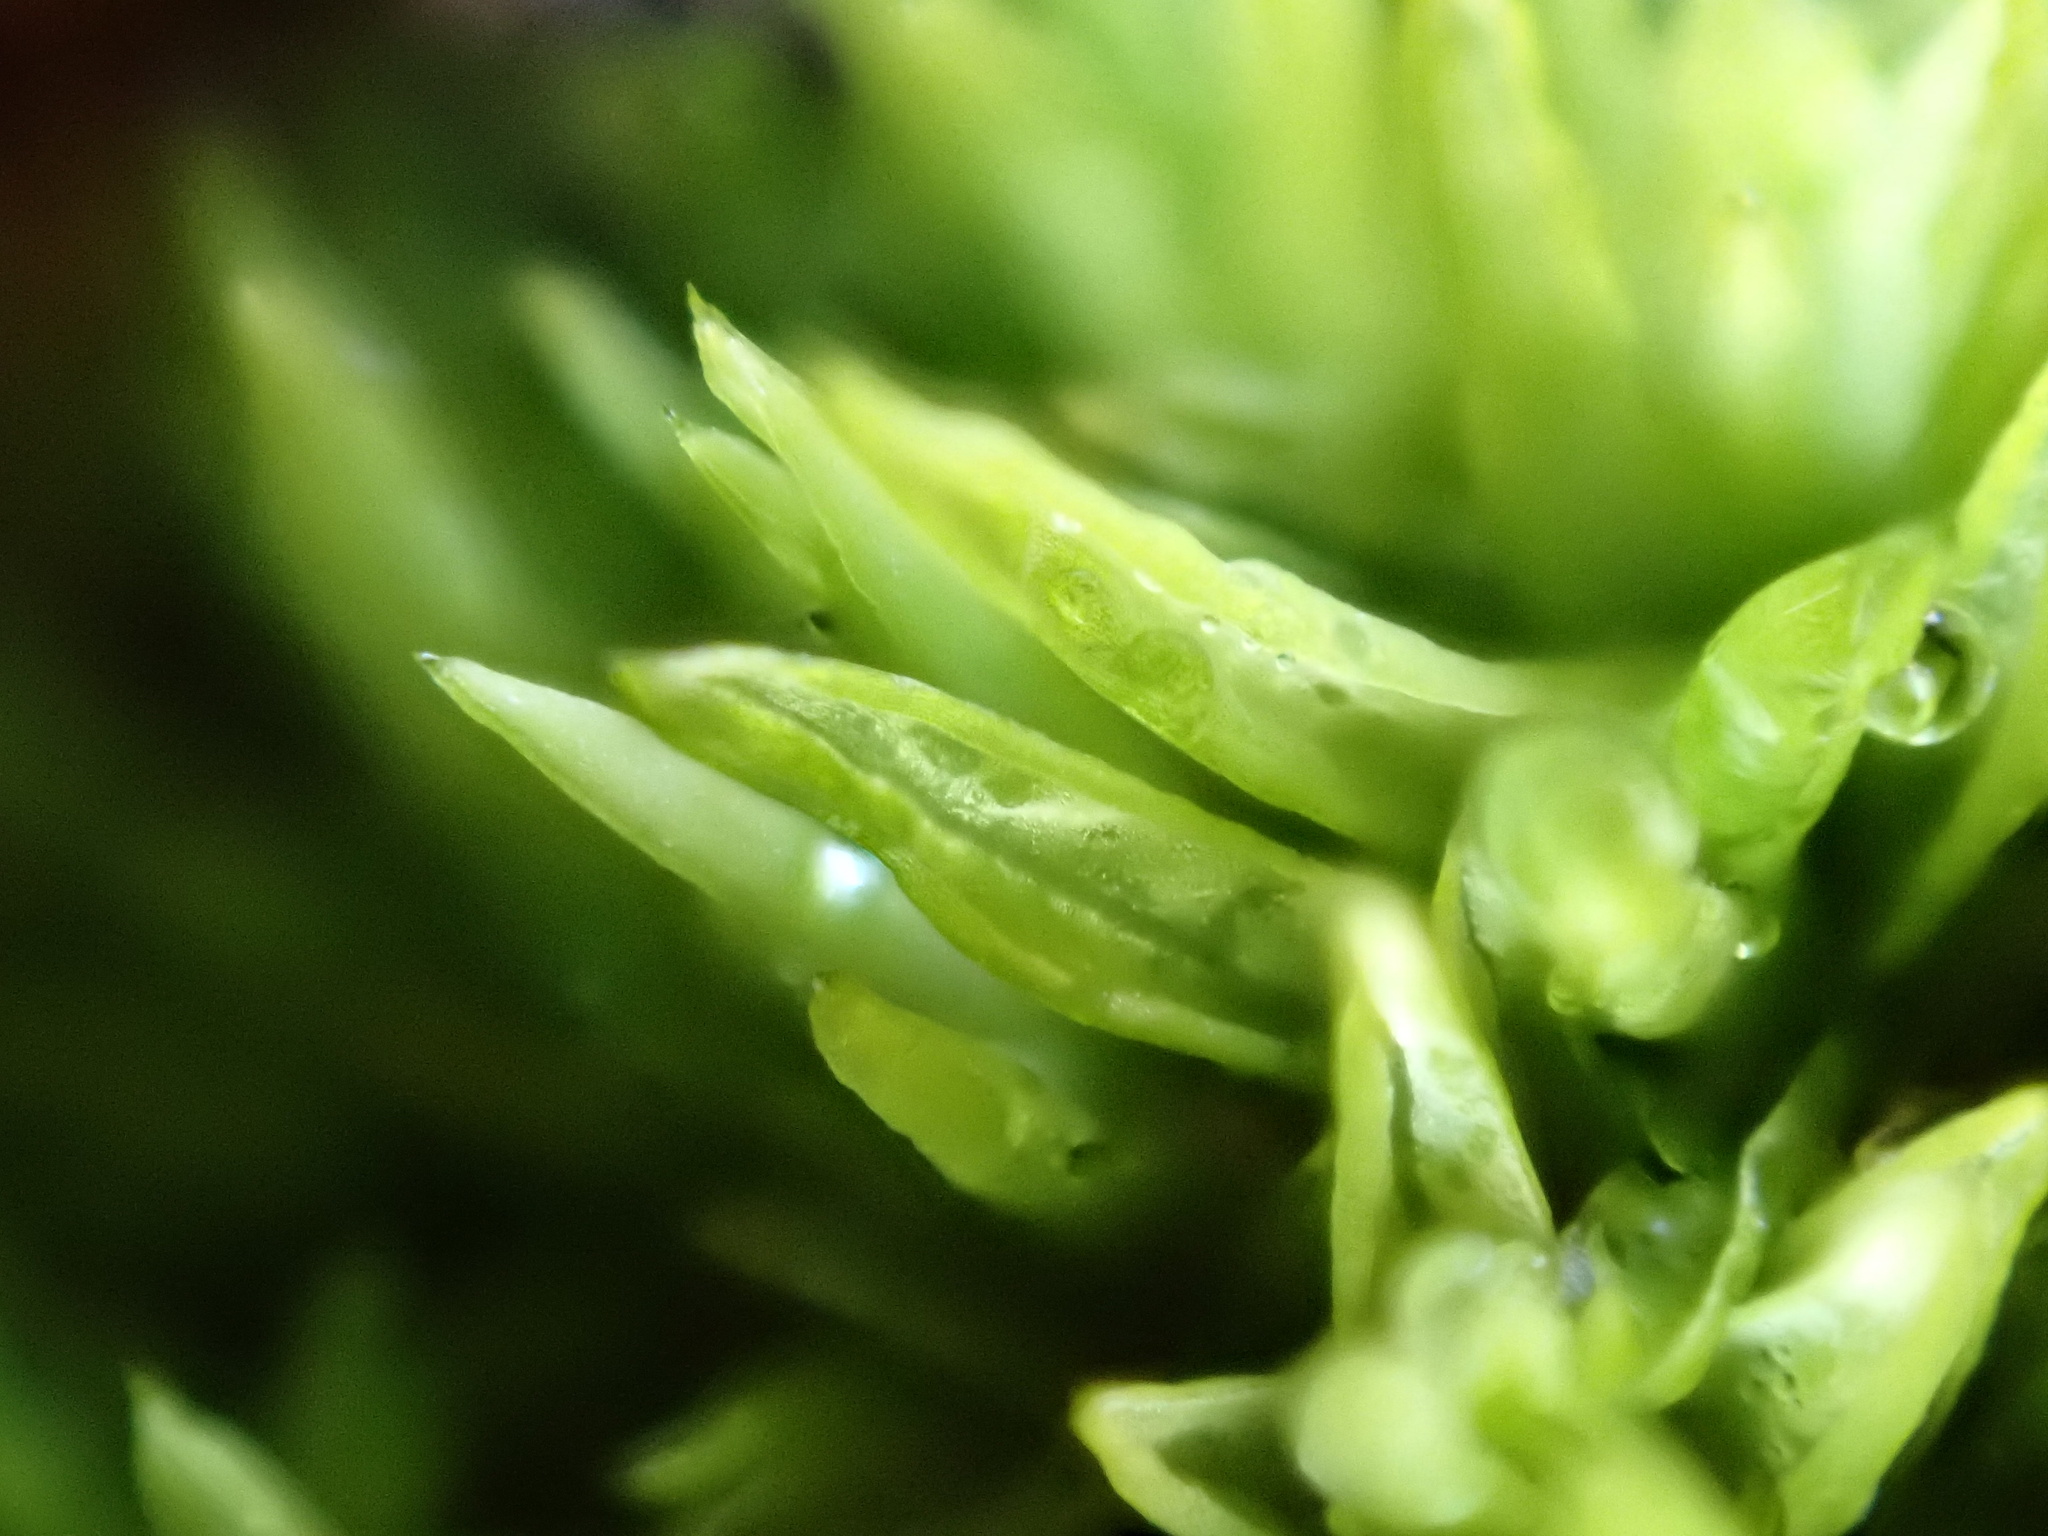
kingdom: Plantae
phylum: Bryophyta
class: Bryopsida
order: Pottiales
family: Pottiaceae
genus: Tortella
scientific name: Tortella flavovirens
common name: Arisaig crisp-moss
